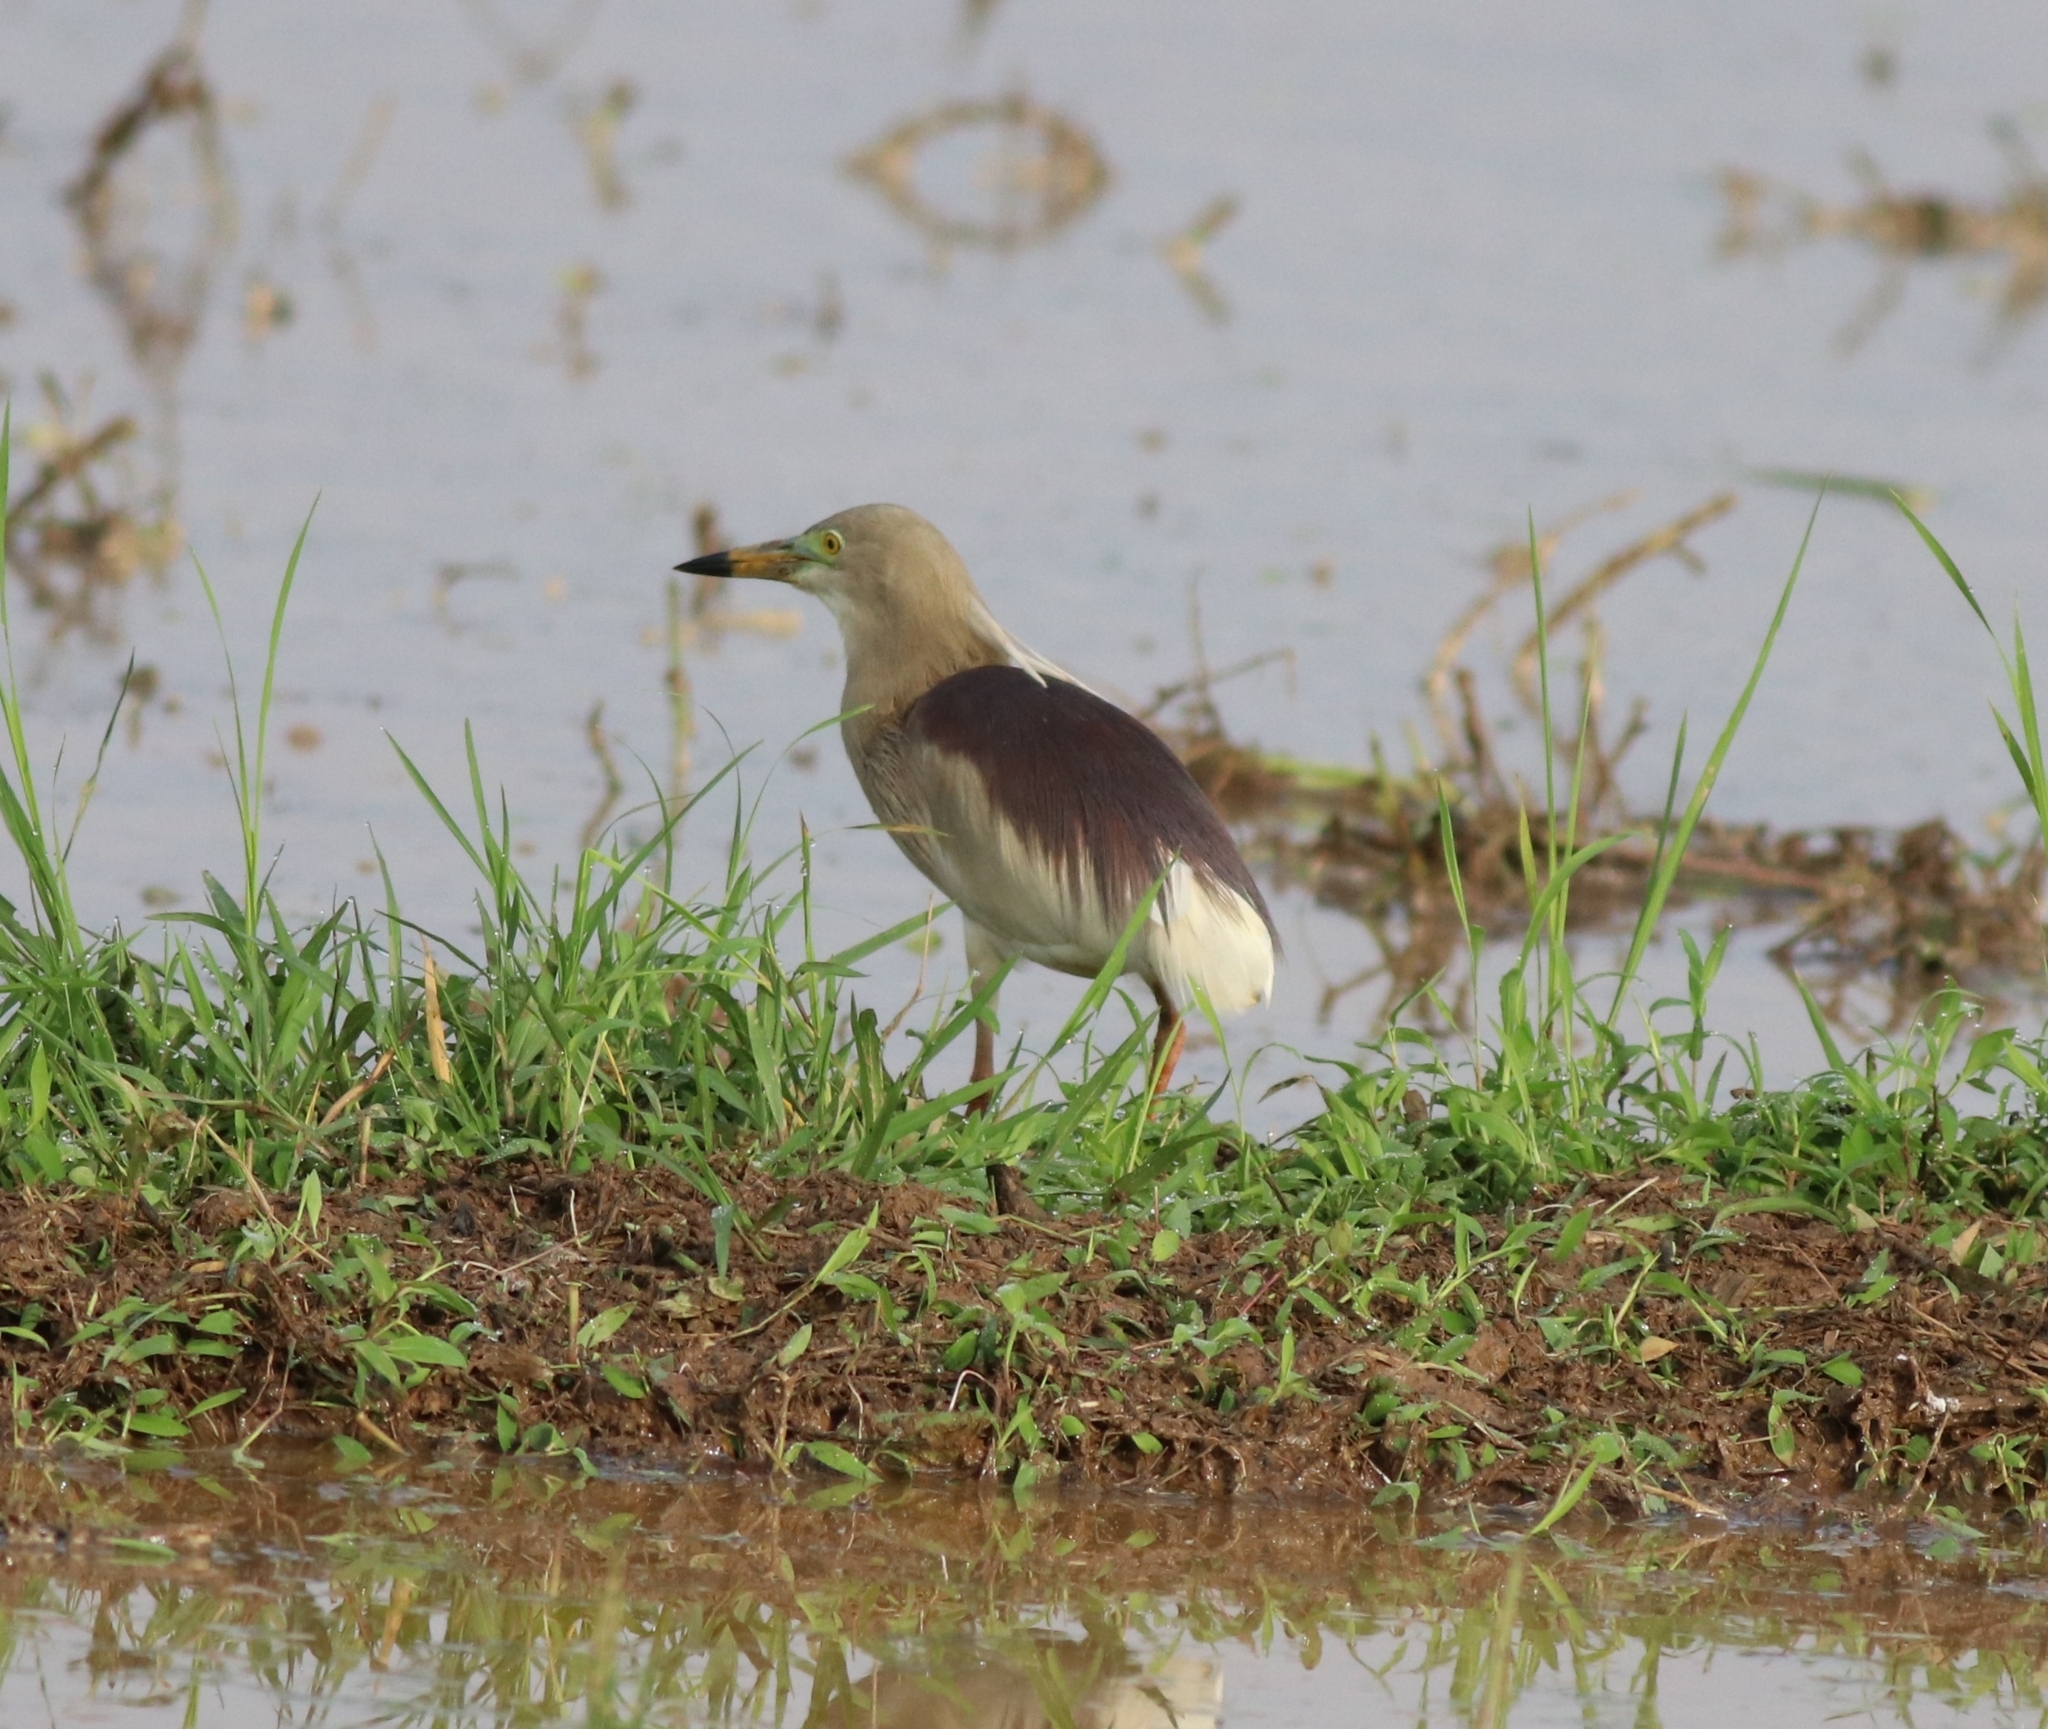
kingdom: Animalia
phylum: Chordata
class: Aves
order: Pelecaniformes
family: Ardeidae
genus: Ardeola
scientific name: Ardeola grayii
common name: Indian pond heron
